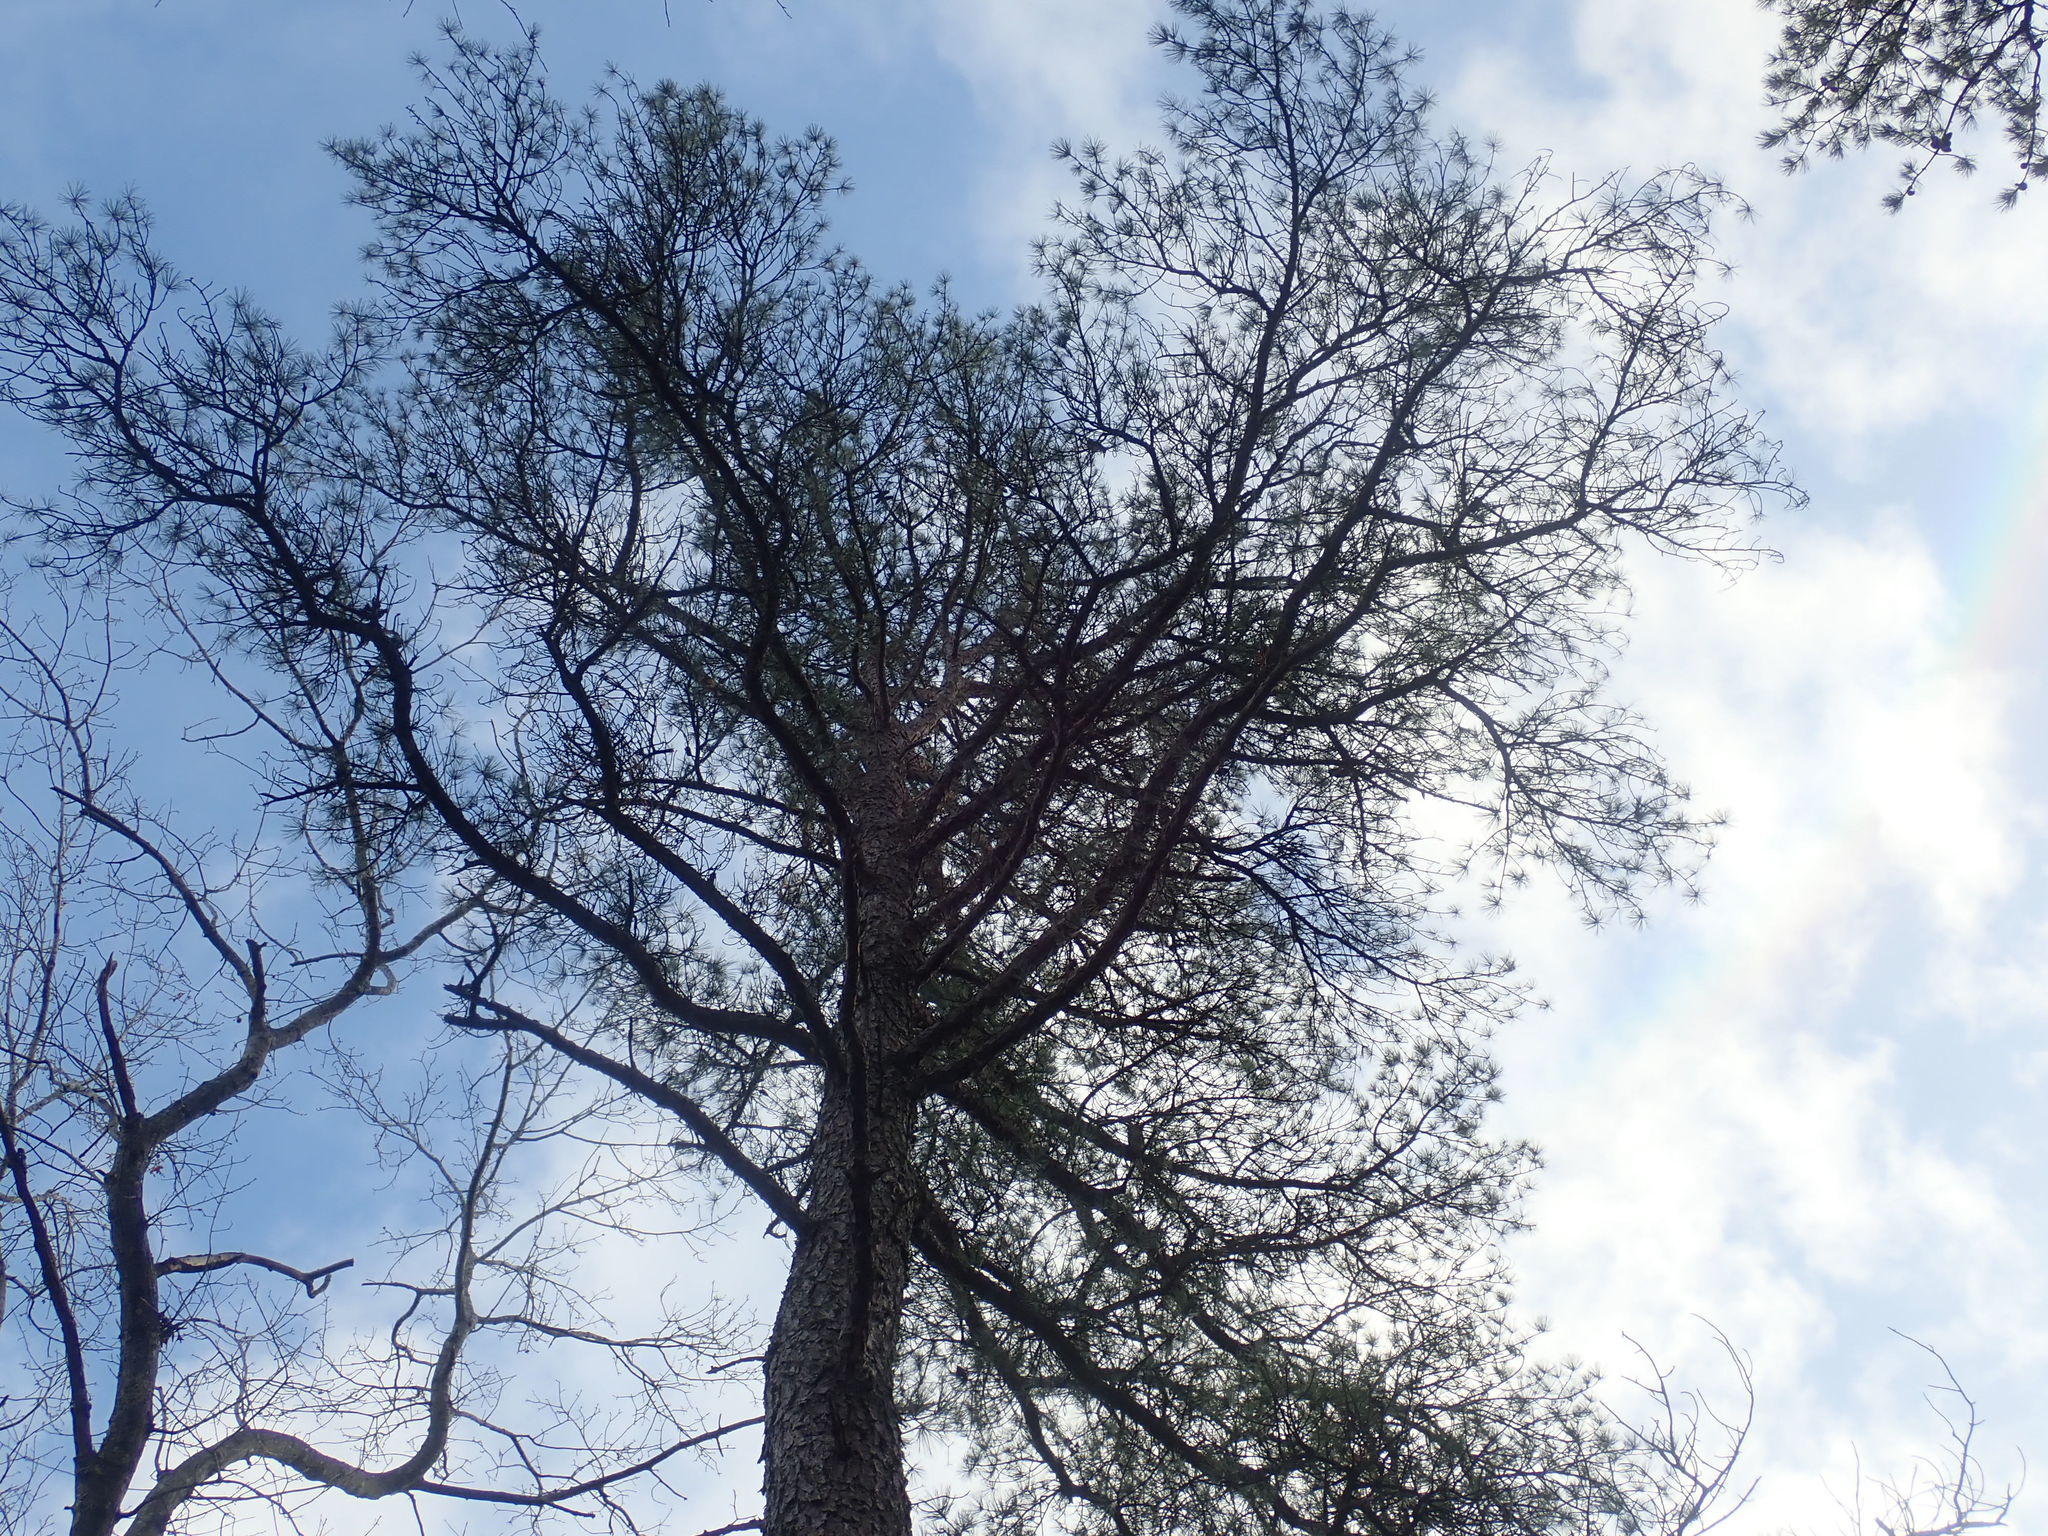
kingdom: Plantae
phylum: Tracheophyta
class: Pinopsida
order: Pinales
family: Pinaceae
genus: Pinus
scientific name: Pinus rigida
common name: Pitch pine
